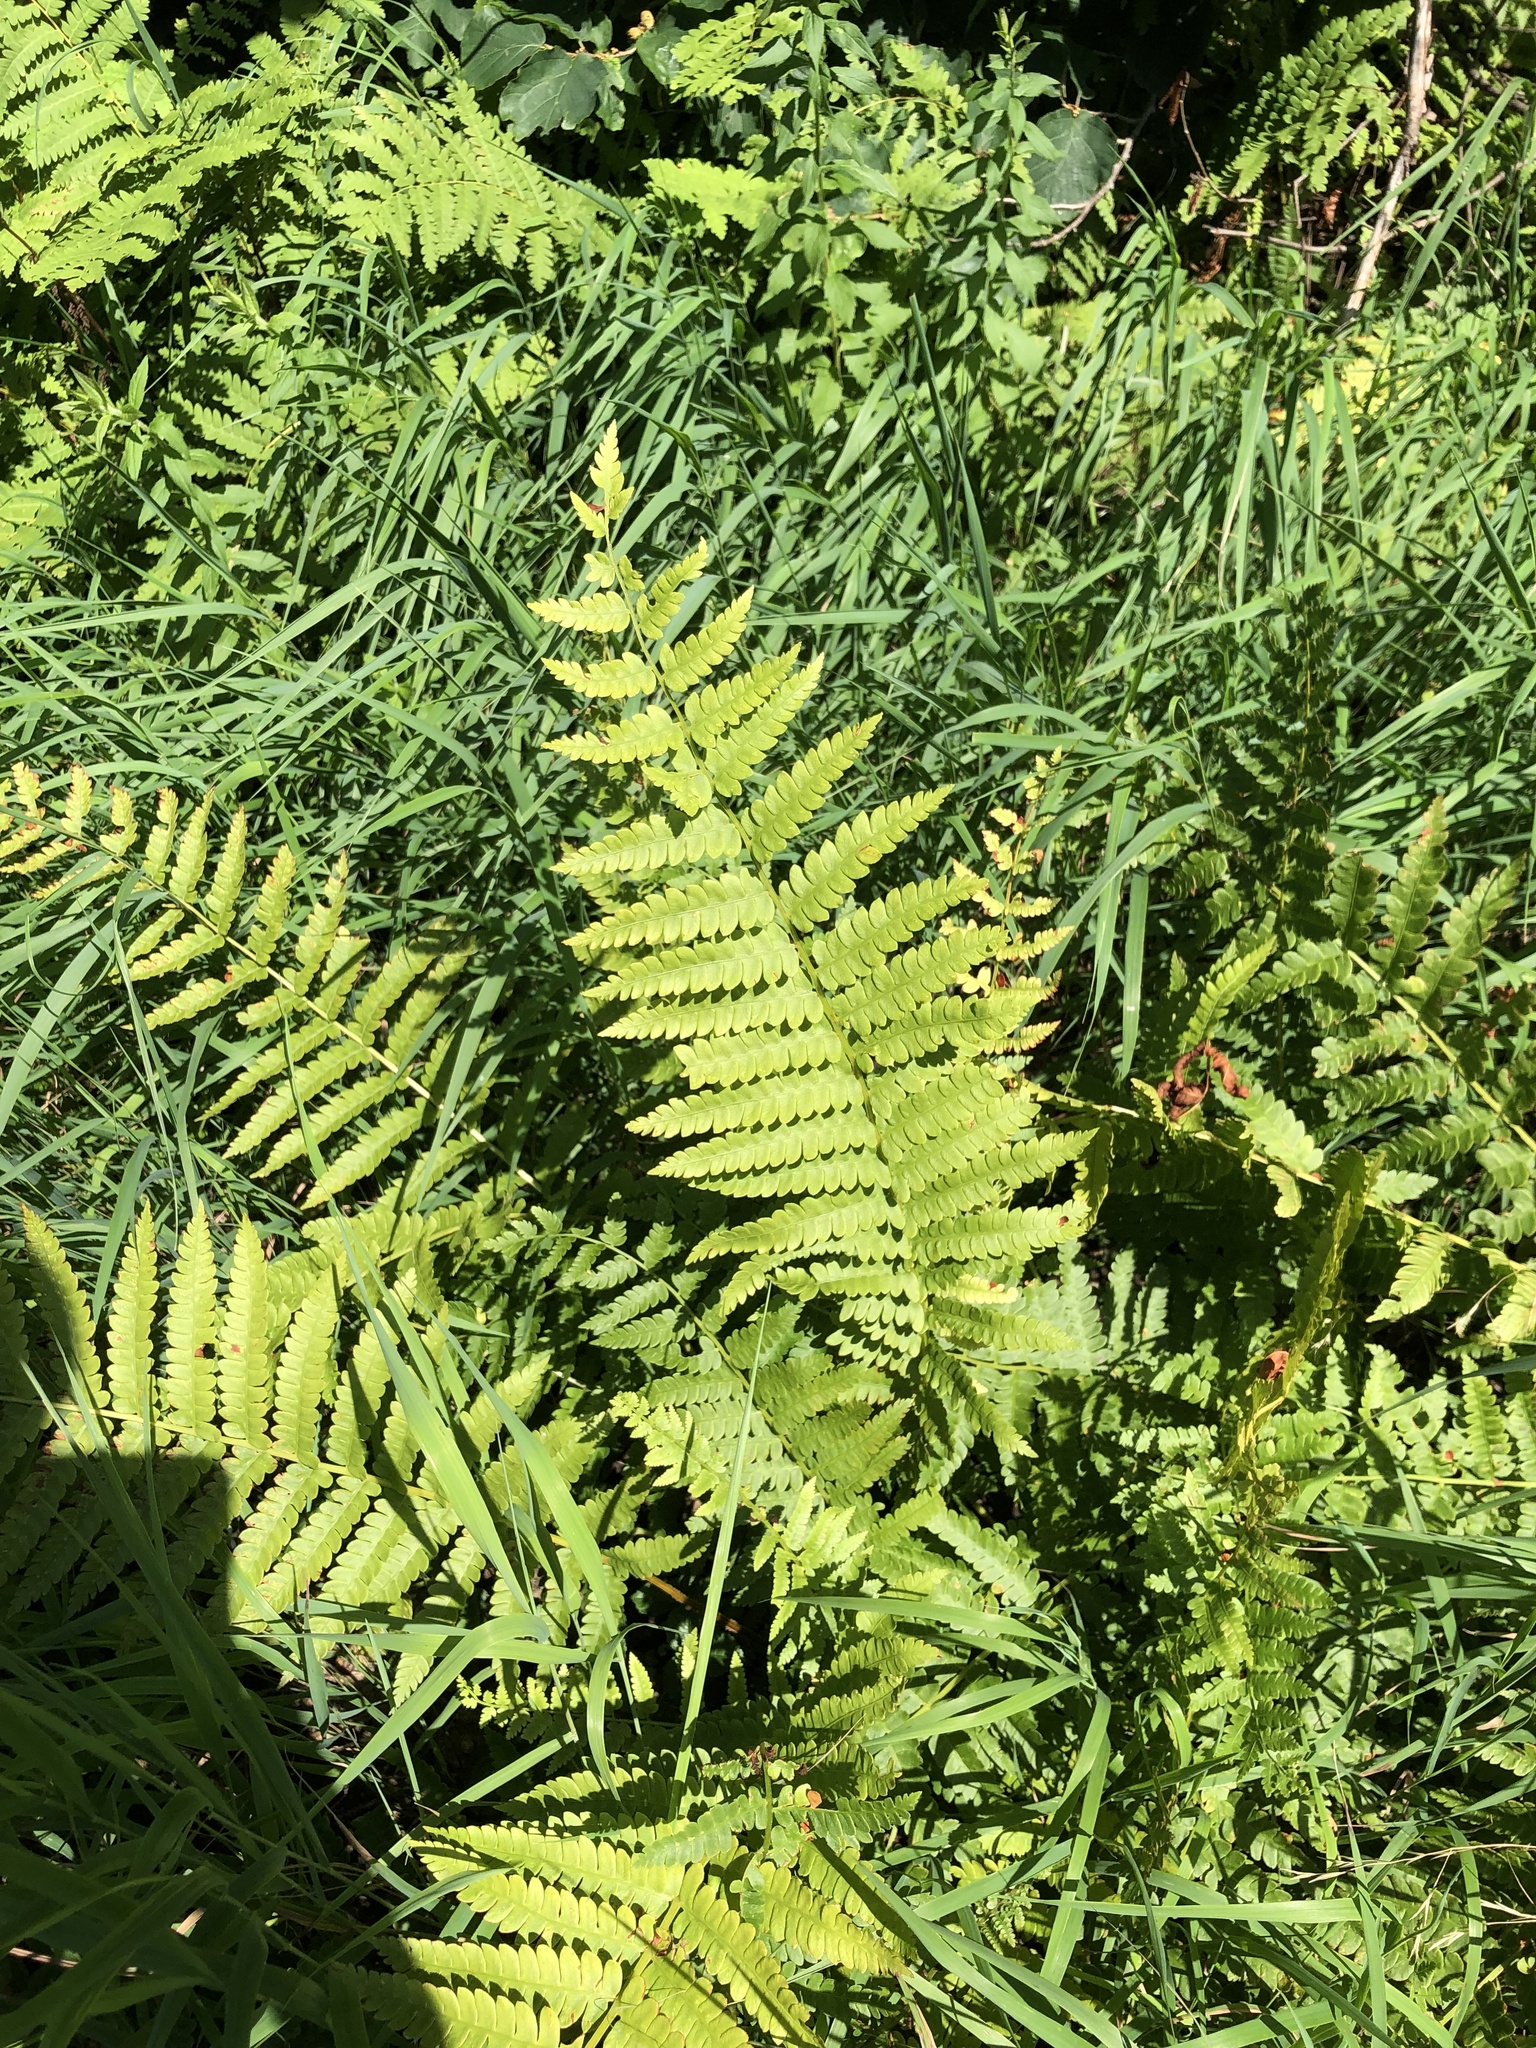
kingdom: Plantae
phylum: Tracheophyta
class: Polypodiopsida
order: Osmundales
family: Osmundaceae
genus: Osmundastrum
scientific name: Osmundastrum cinnamomeum
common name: Cinnamon fern
